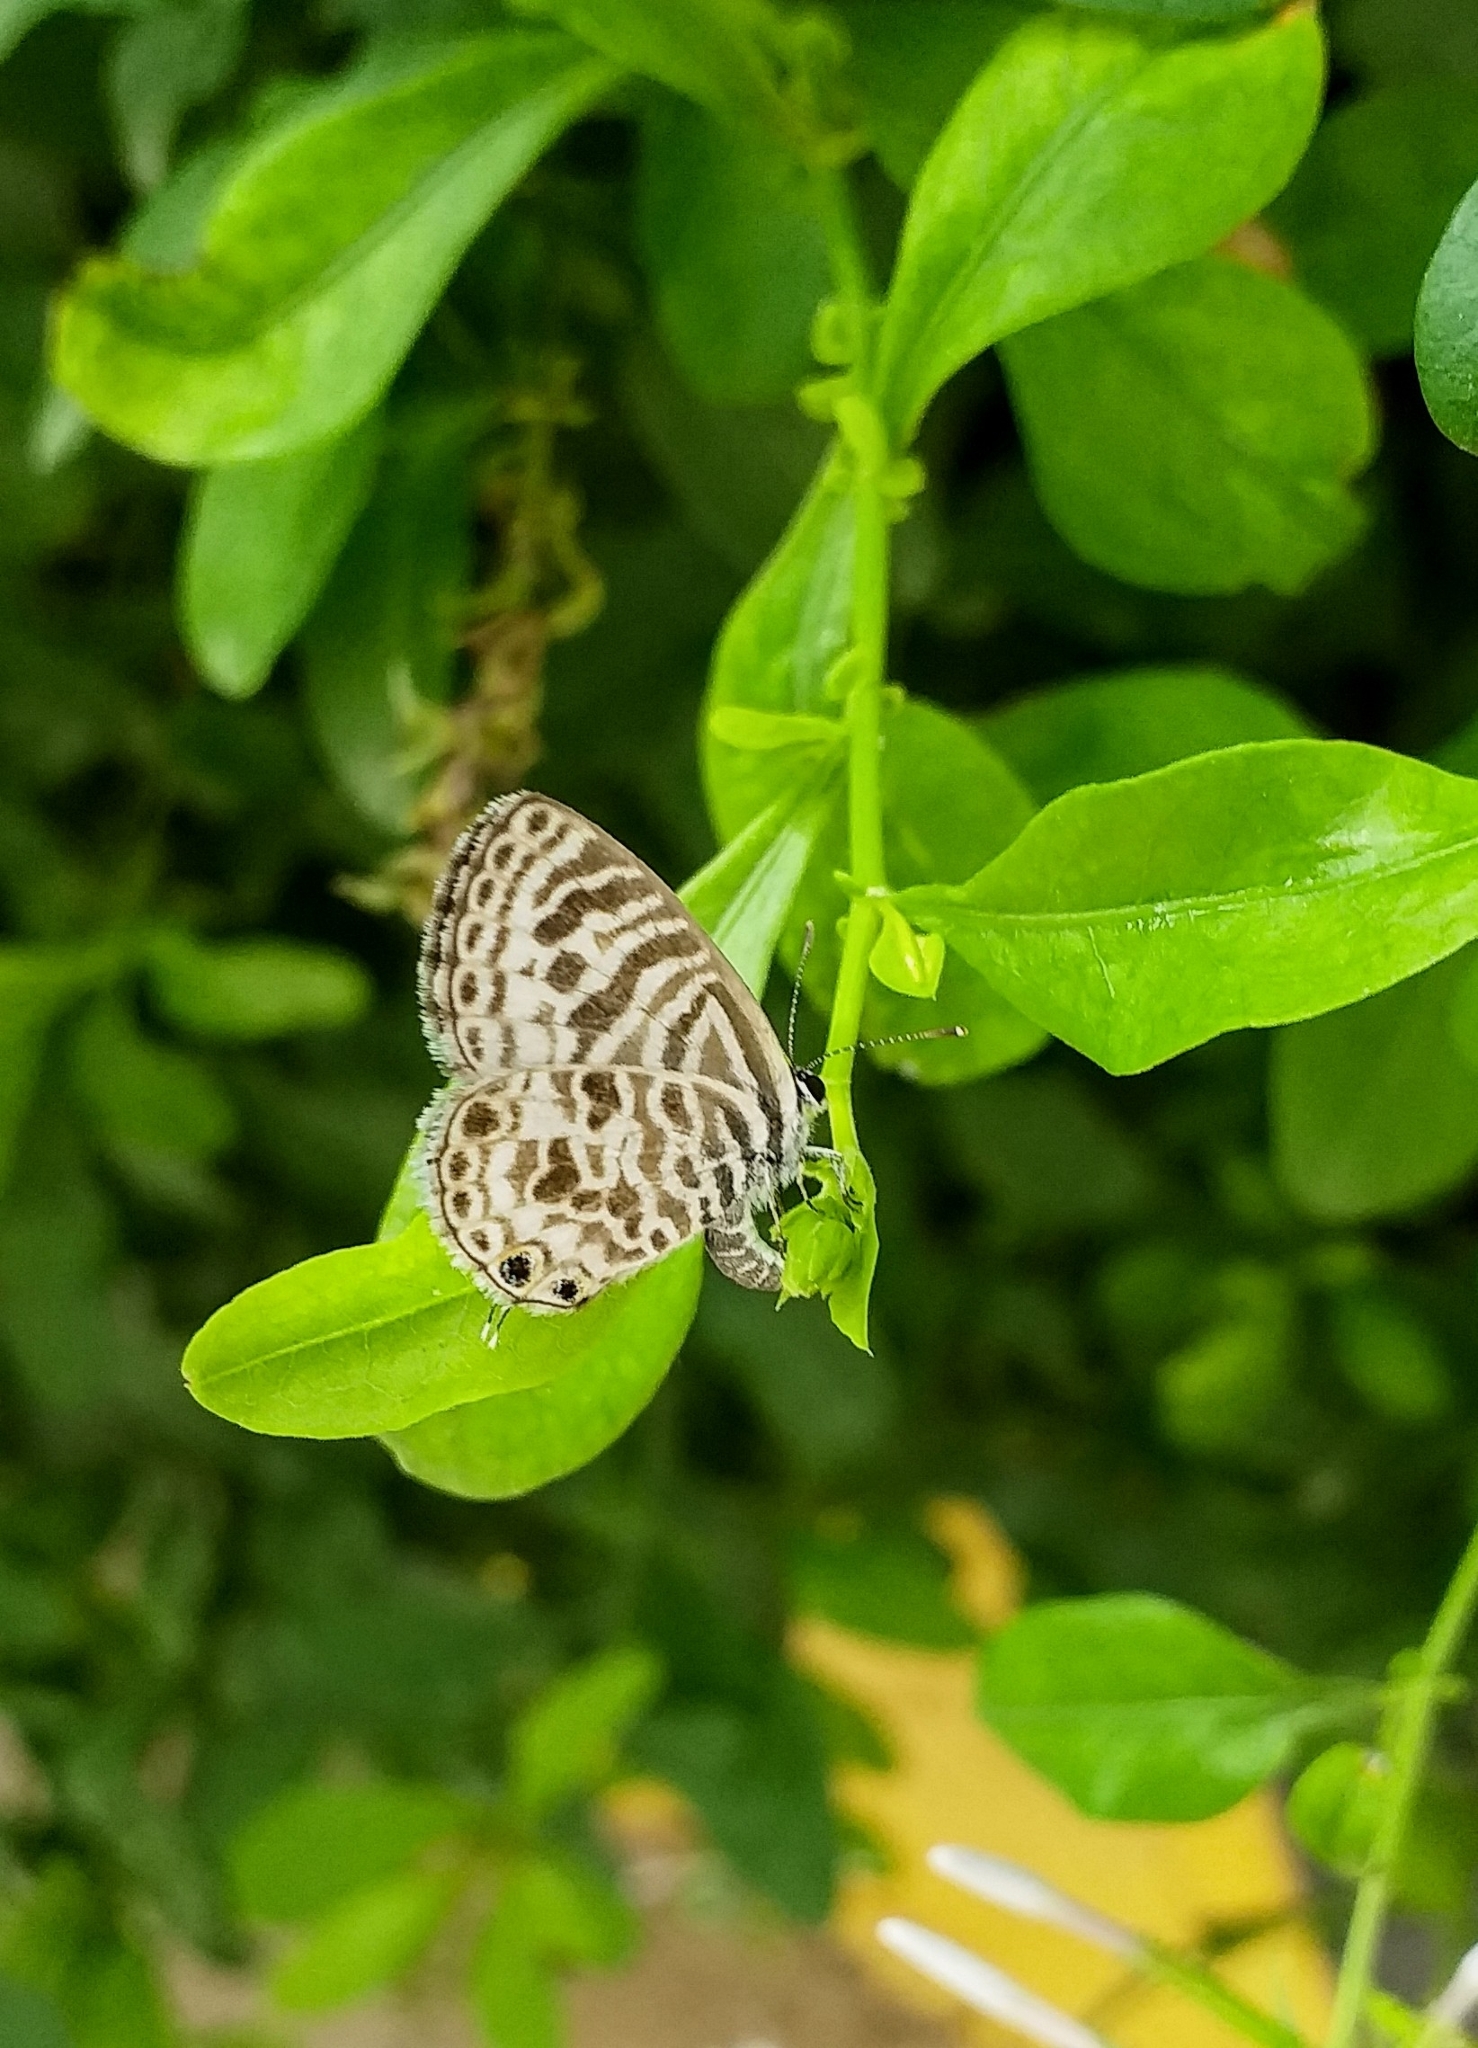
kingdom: Animalia
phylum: Arthropoda
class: Insecta
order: Lepidoptera
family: Lycaenidae
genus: Leptotes
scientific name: Leptotes plinius
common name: Zebra blue
